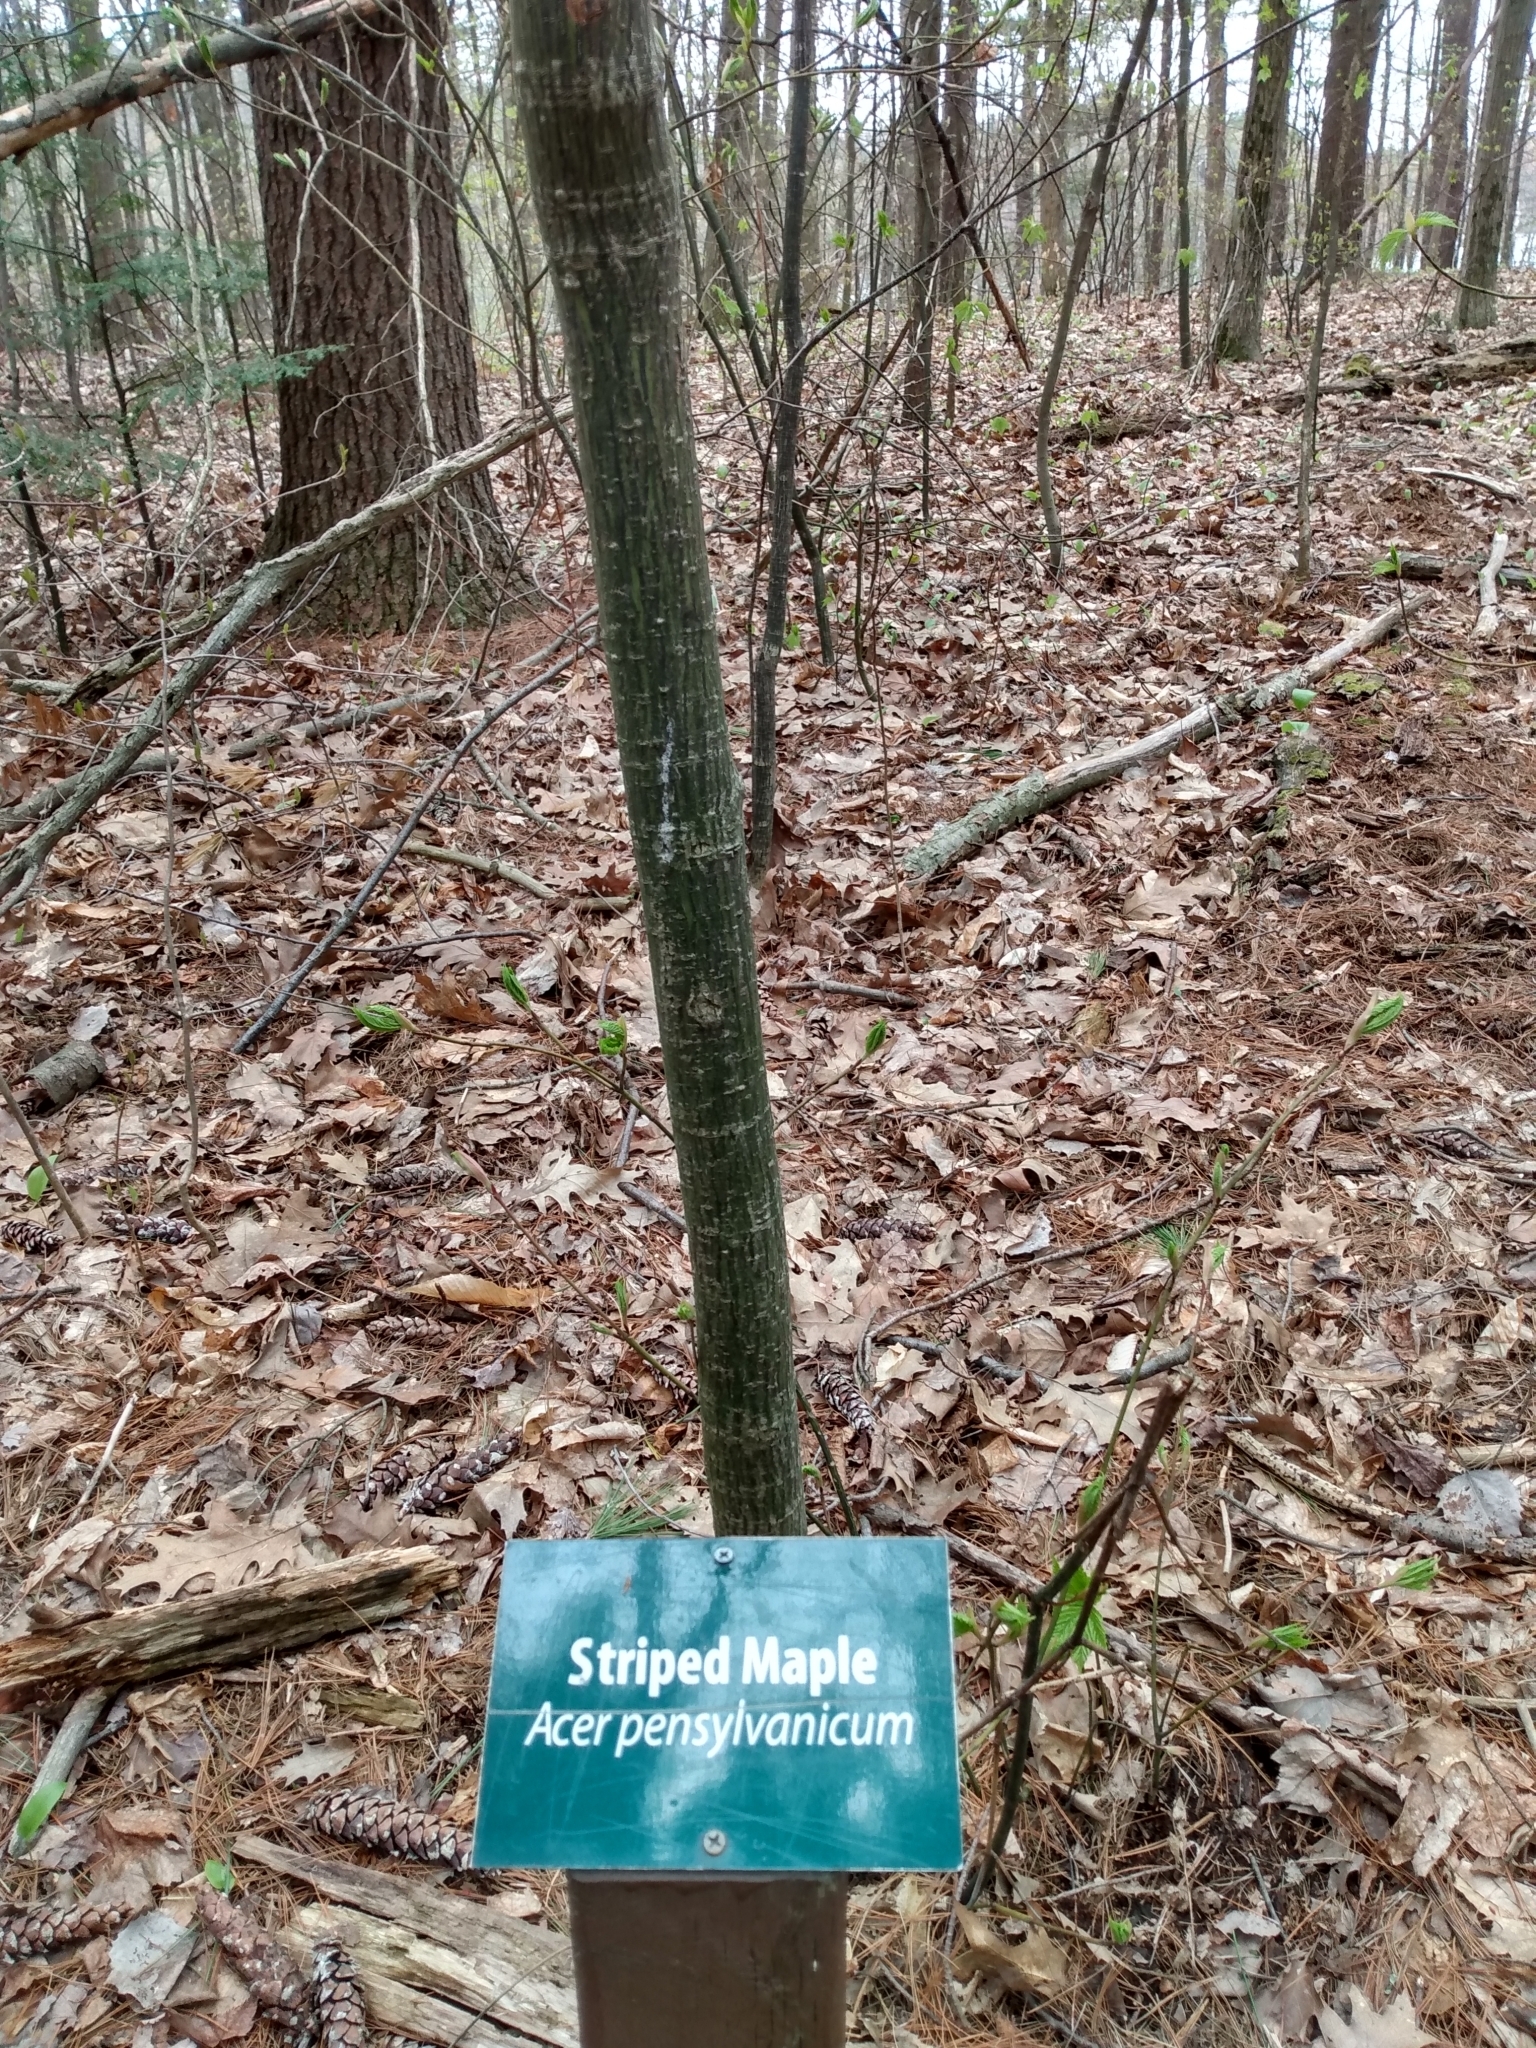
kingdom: Plantae
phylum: Tracheophyta
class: Magnoliopsida
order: Sapindales
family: Sapindaceae
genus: Acer
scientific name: Acer pensylvanicum
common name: Moosewood
